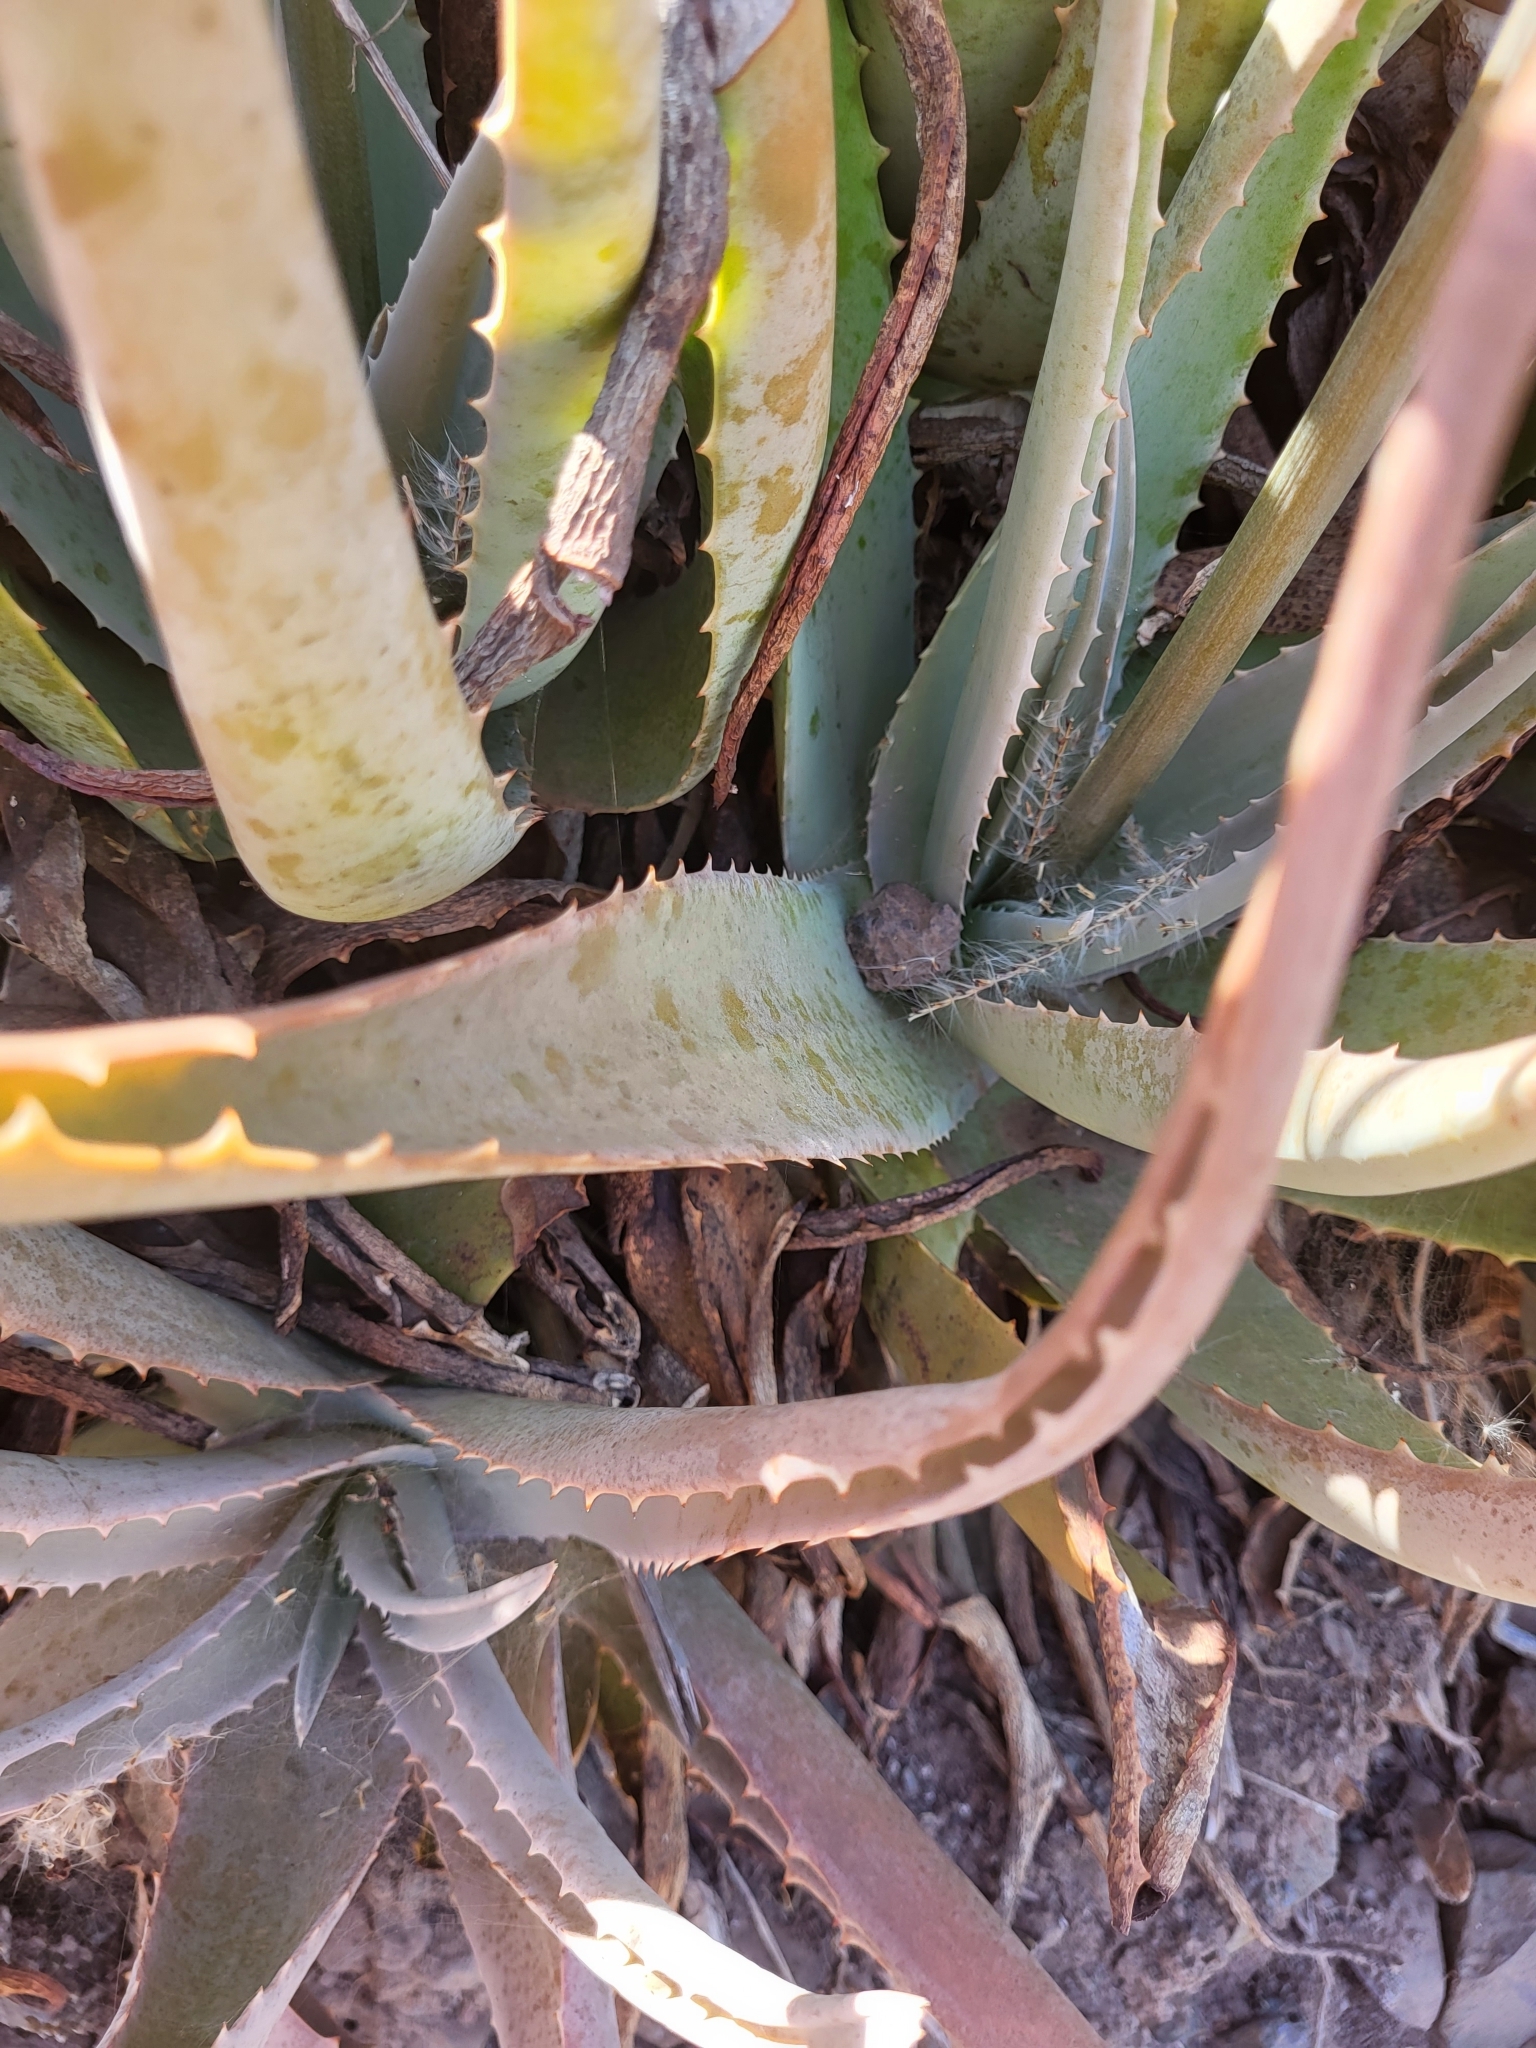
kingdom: Plantae
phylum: Tracheophyta
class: Liliopsida
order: Asparagales
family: Asphodelaceae
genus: Aloe
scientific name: Aloe vera
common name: Barbados aloe
